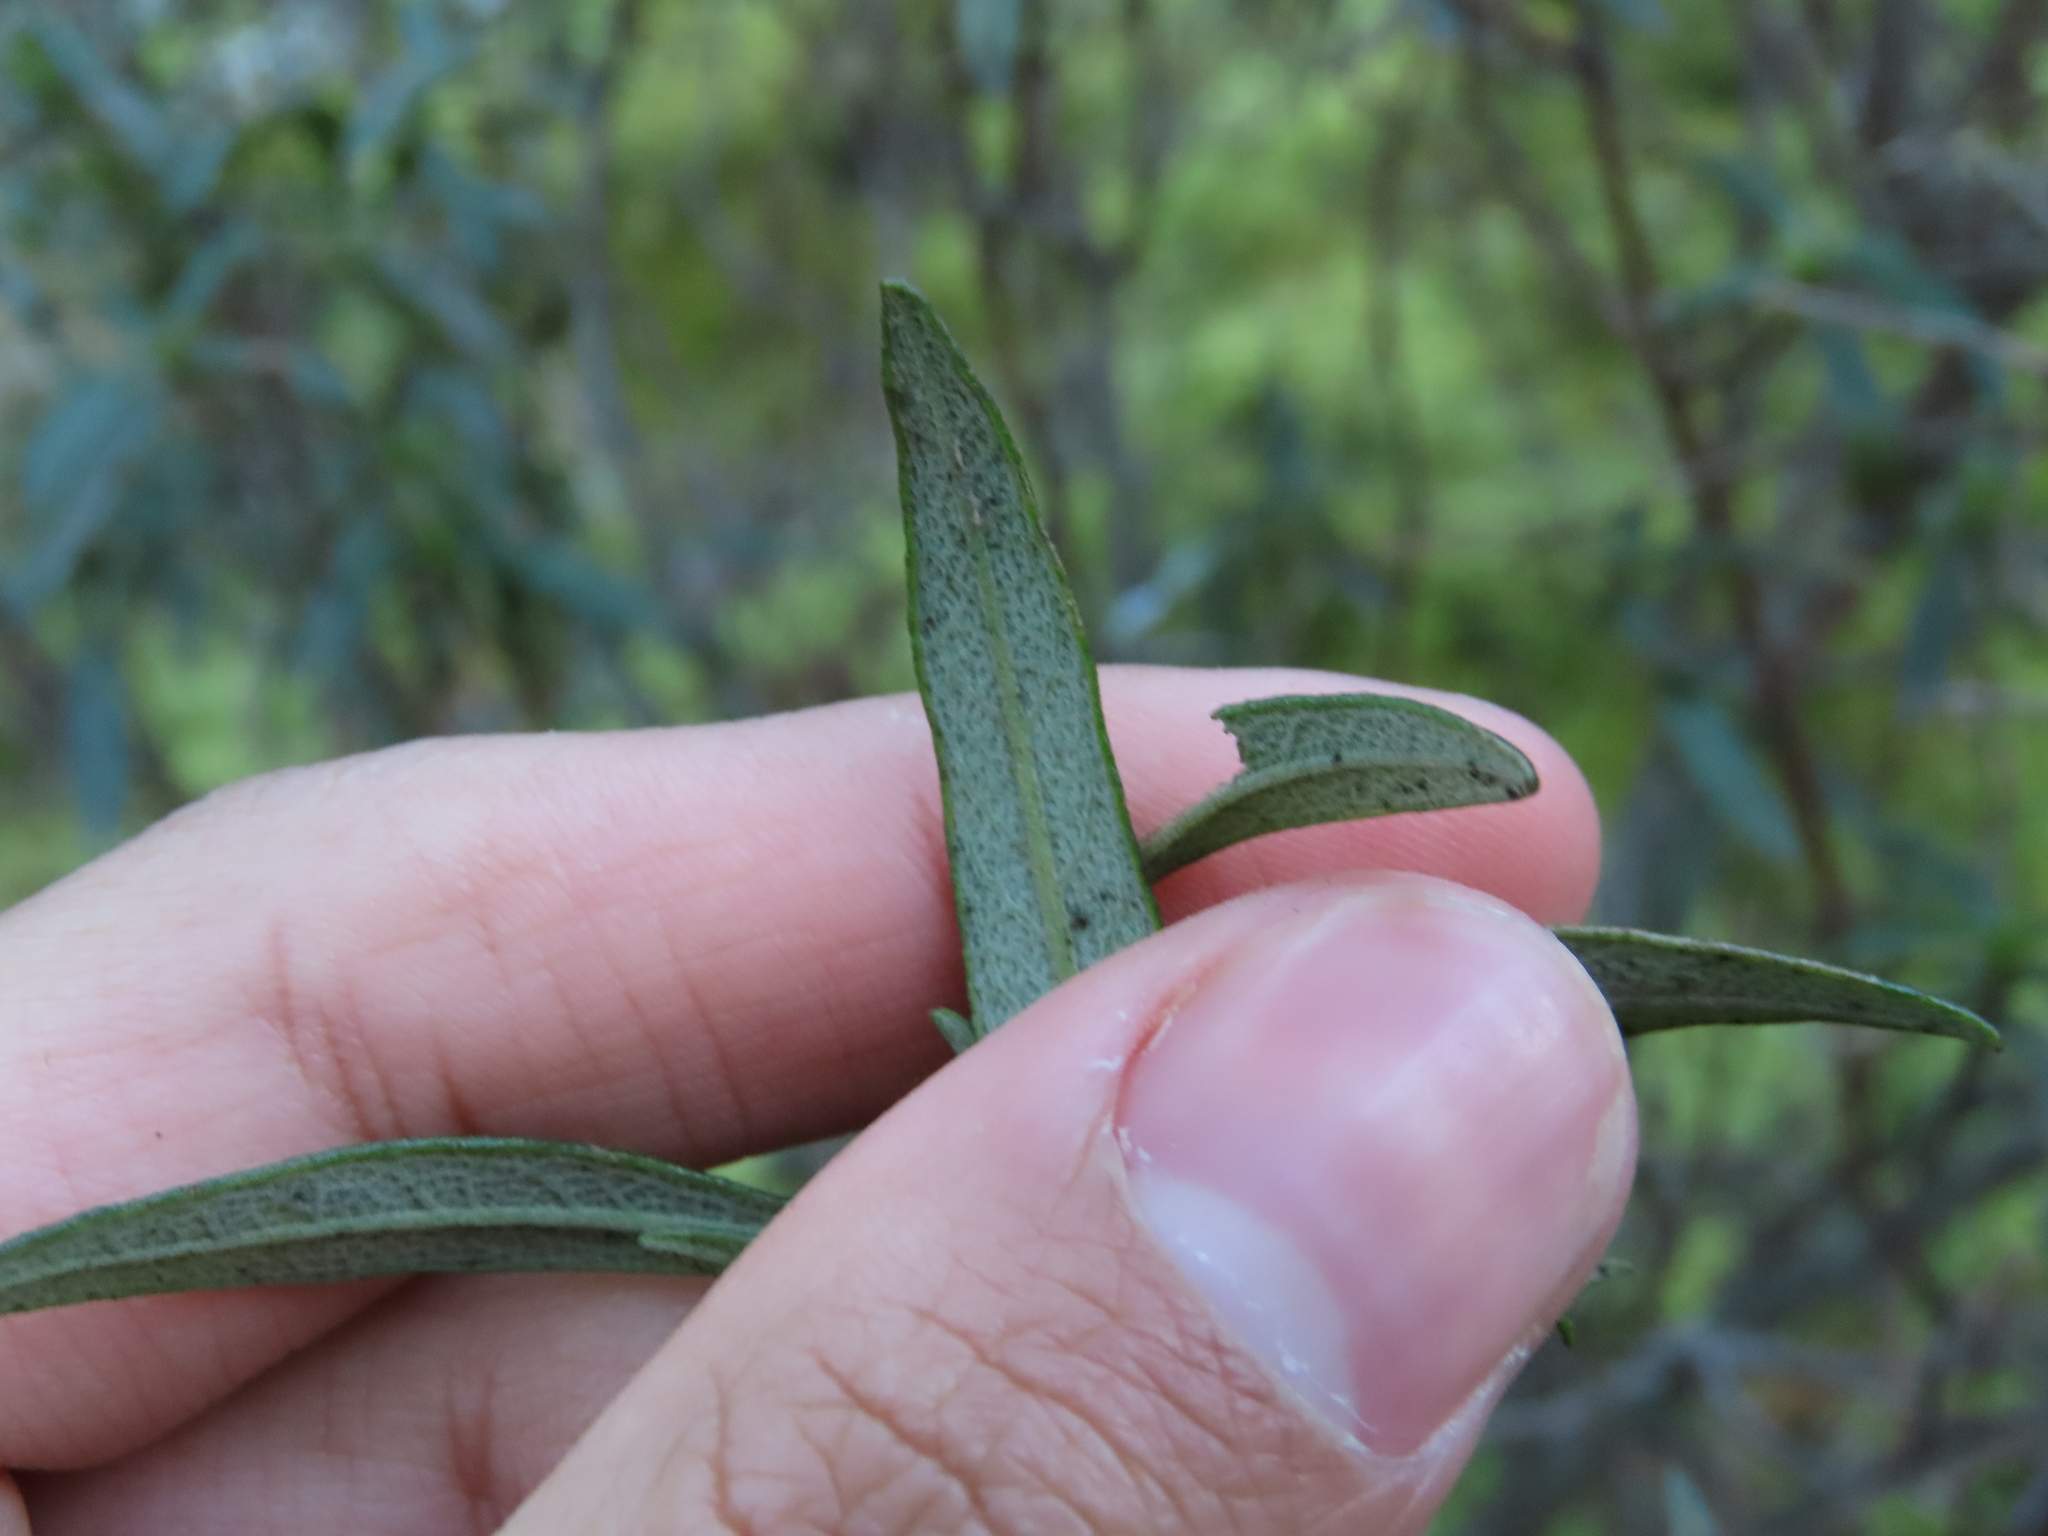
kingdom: Animalia
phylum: Arthropoda
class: Insecta
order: Lepidoptera
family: Nepticulidae
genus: Parafomoria
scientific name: Parafomoria cistivora
